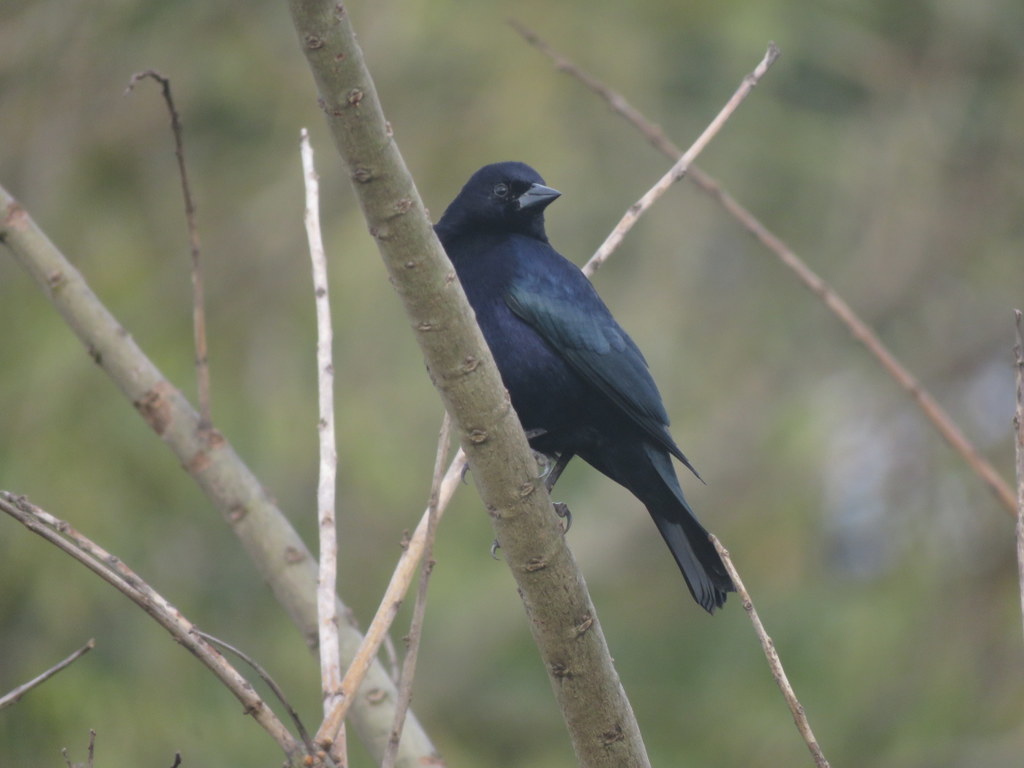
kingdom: Animalia
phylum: Chordata
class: Aves
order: Passeriformes
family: Icteridae
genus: Molothrus
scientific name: Molothrus bonariensis
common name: Shiny cowbird
